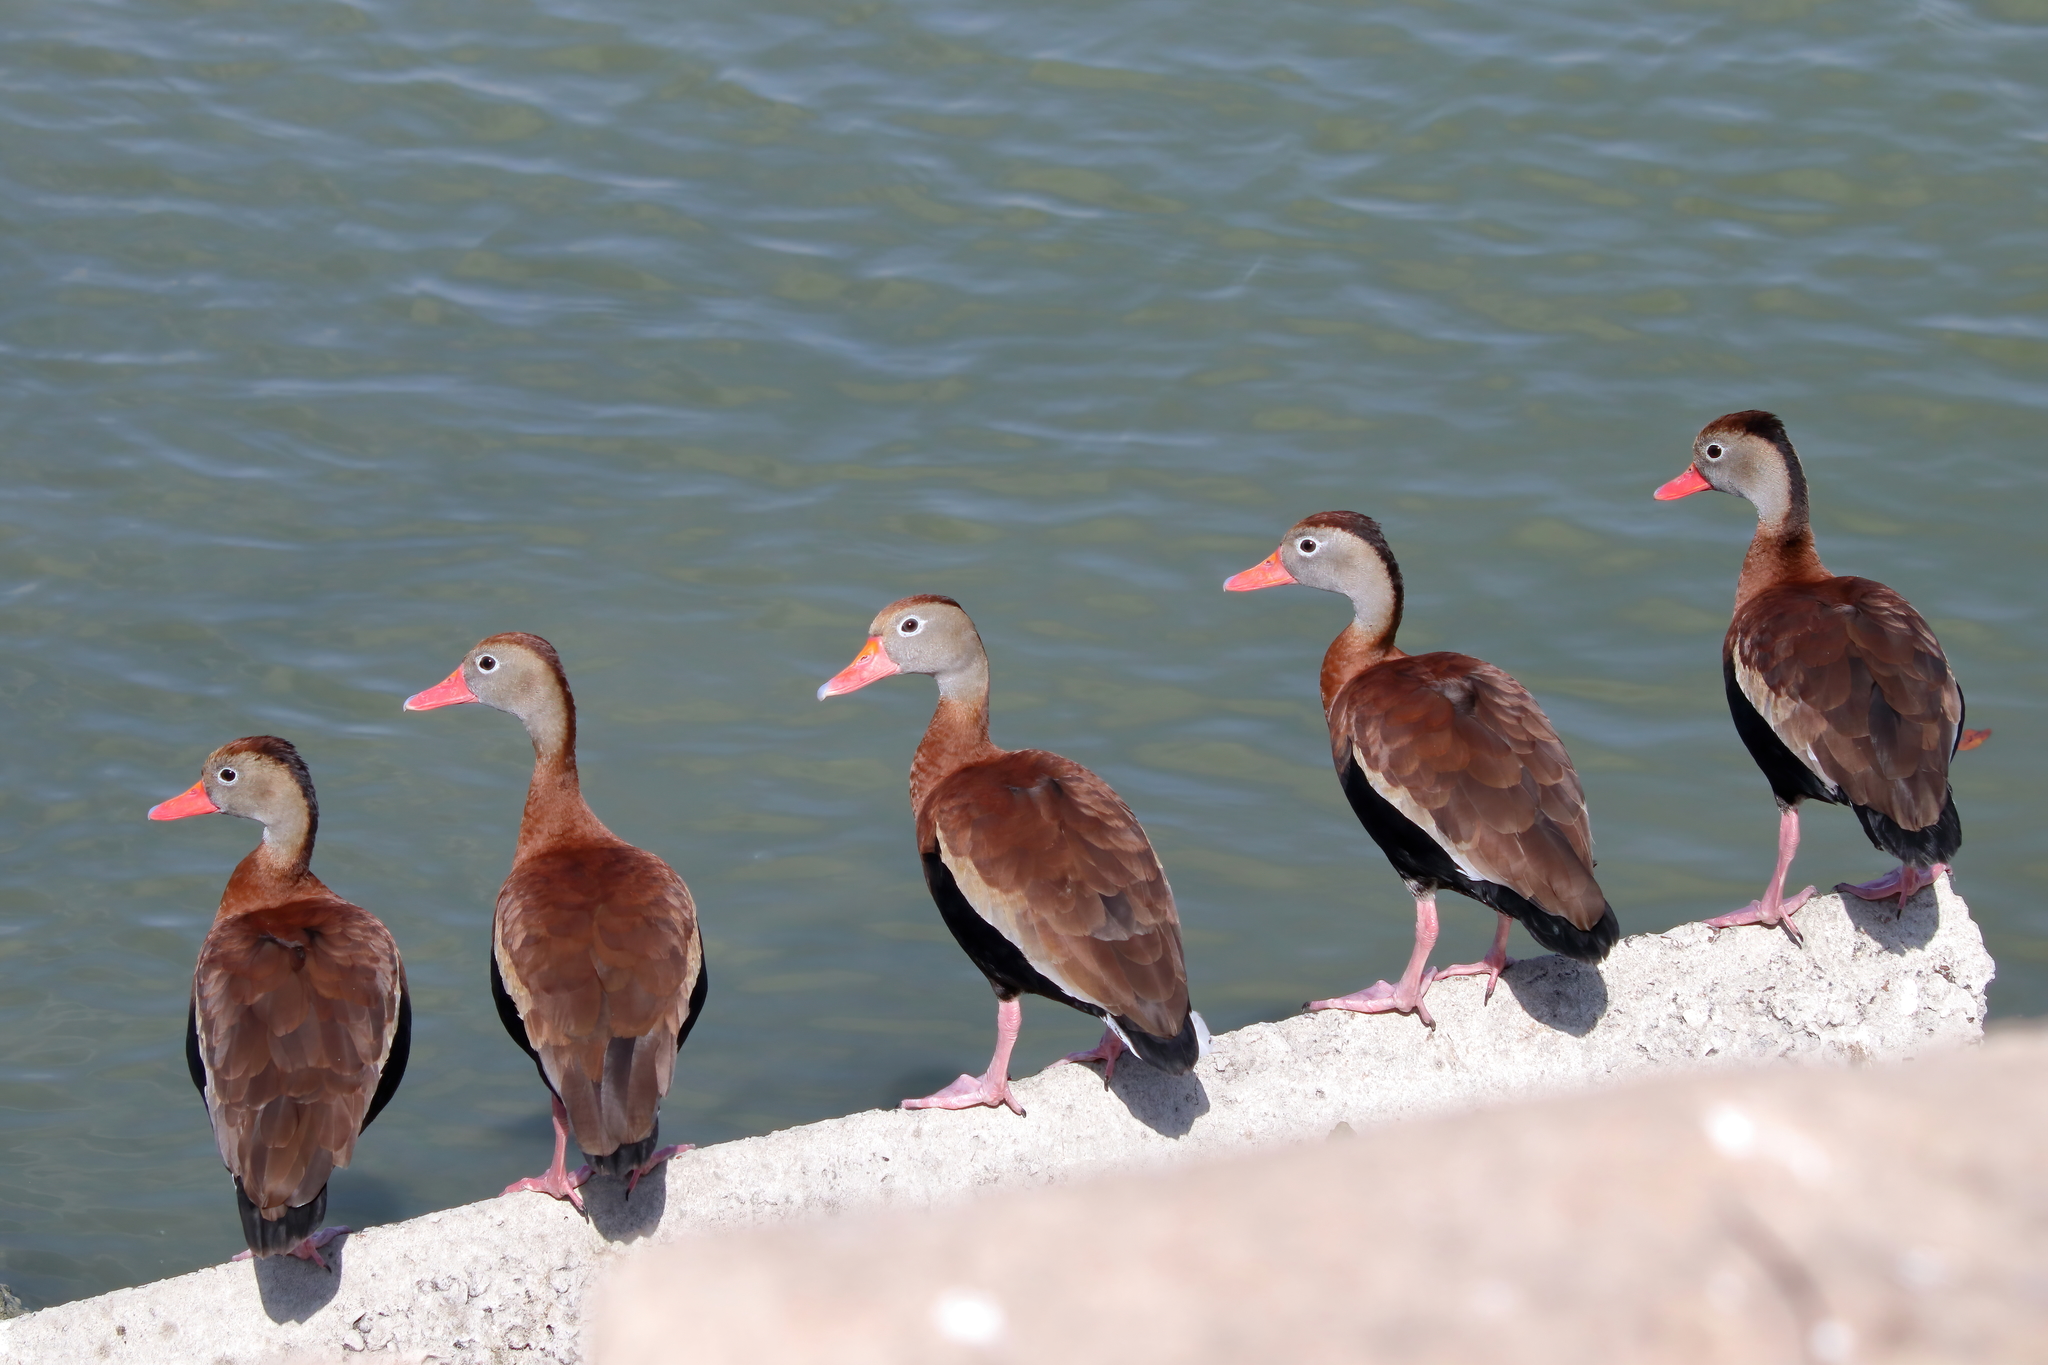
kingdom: Animalia
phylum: Chordata
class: Aves
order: Anseriformes
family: Anatidae
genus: Dendrocygna
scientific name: Dendrocygna autumnalis
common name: Black-bellied whistling duck
